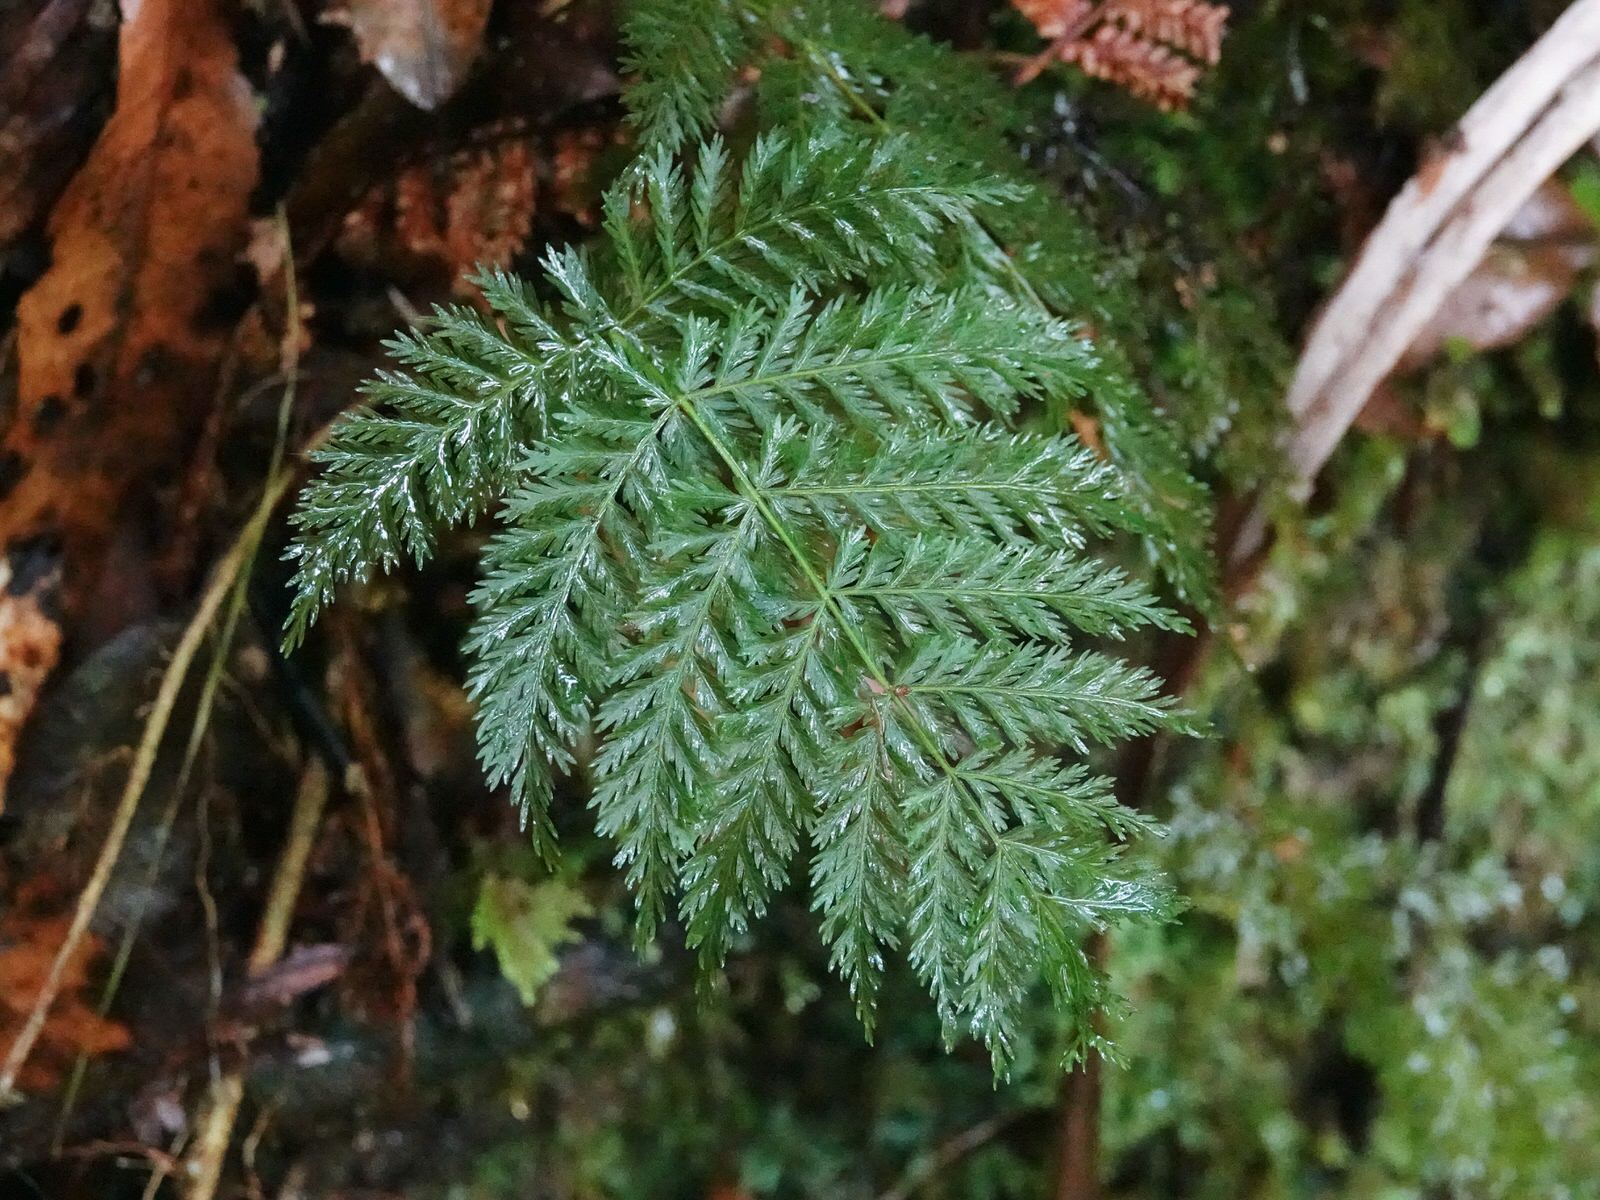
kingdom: Plantae
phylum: Tracheophyta
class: Polypodiopsida
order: Osmundales
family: Osmundaceae
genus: Leptopteris
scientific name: Leptopteris hymenophylloides
